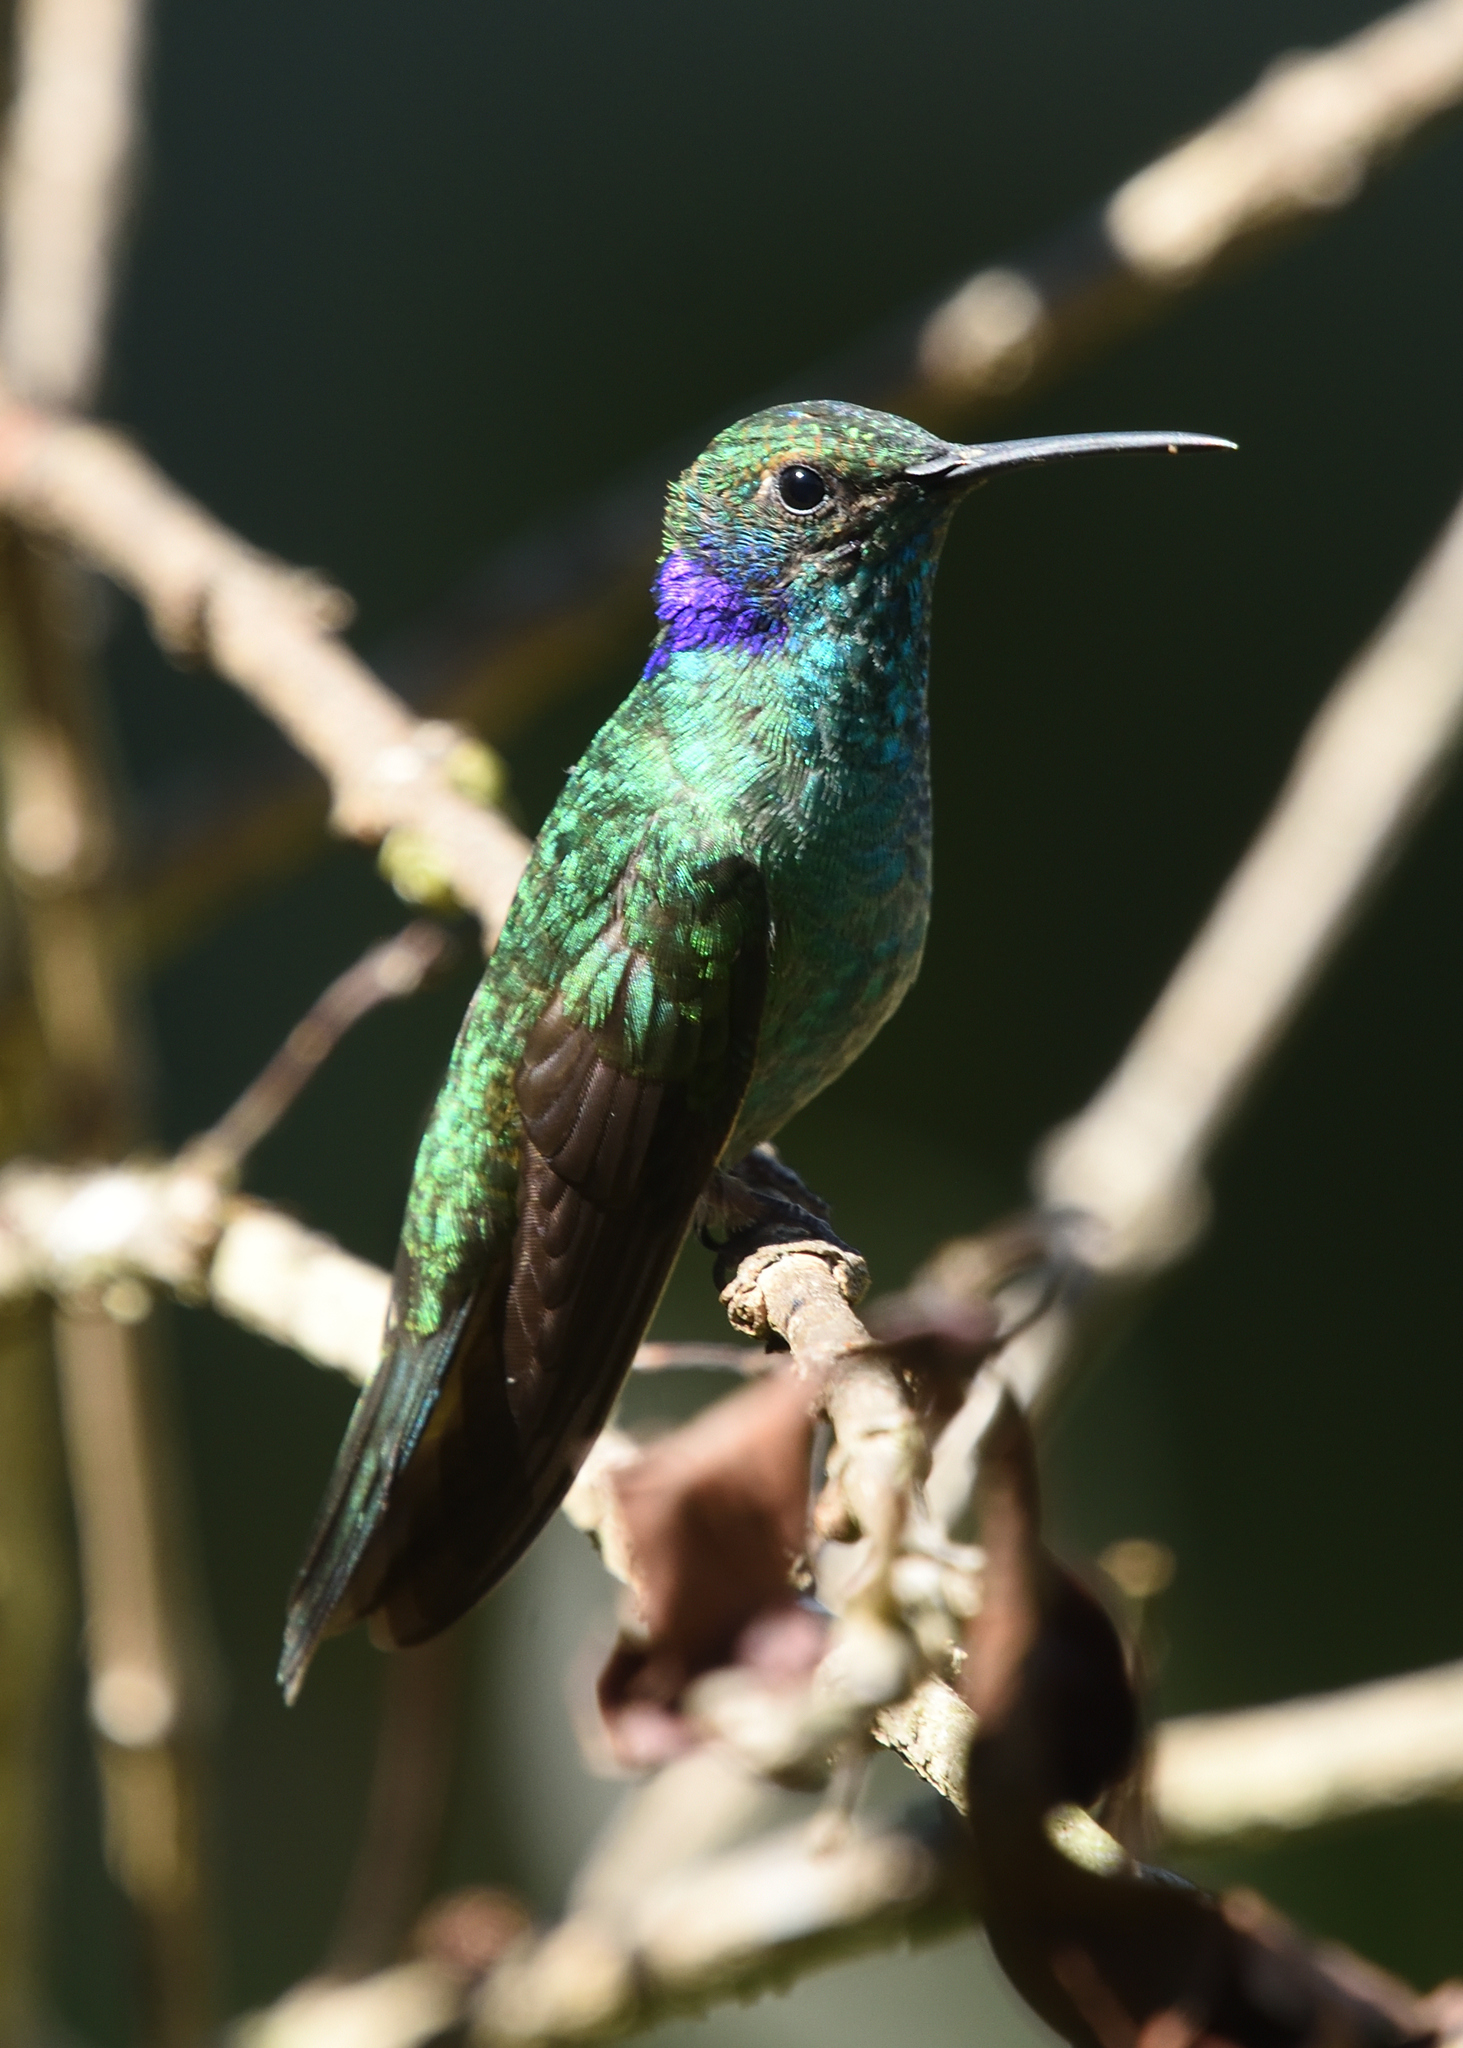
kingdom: Animalia
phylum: Chordata
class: Aves
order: Apodiformes
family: Trochilidae
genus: Colibri
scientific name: Colibri cyanotus
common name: Lesser violetear
